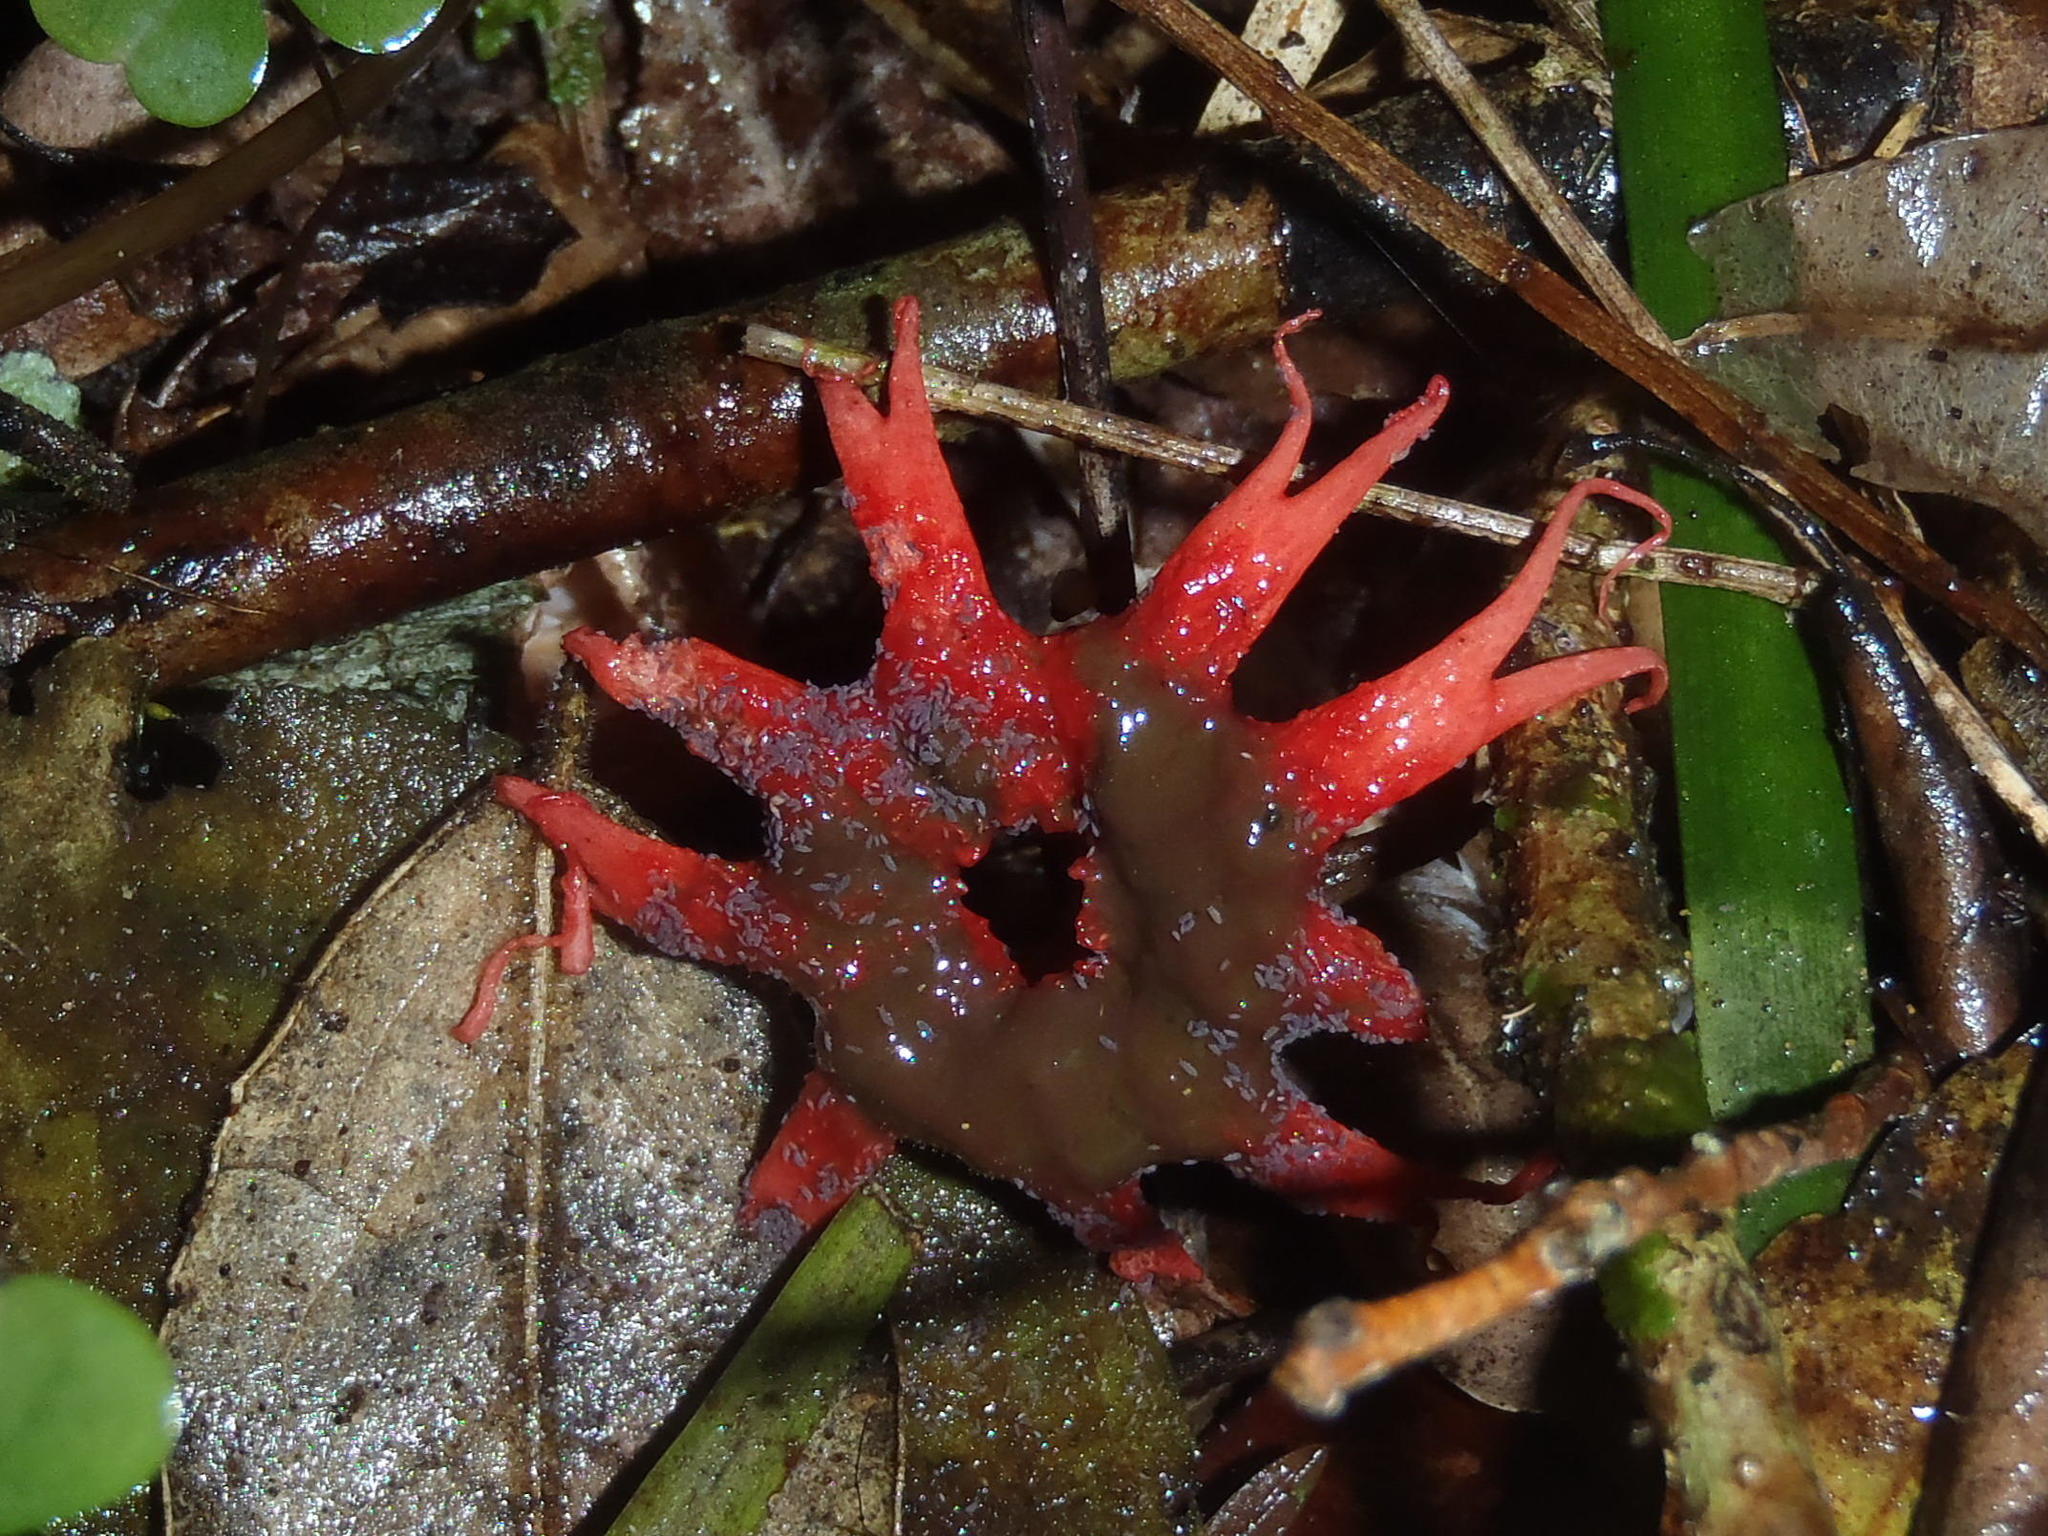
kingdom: Fungi
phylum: Basidiomycota
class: Agaricomycetes
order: Phallales
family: Phallaceae
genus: Aseroe
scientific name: Aseroe rubra
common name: Starfish fungus
